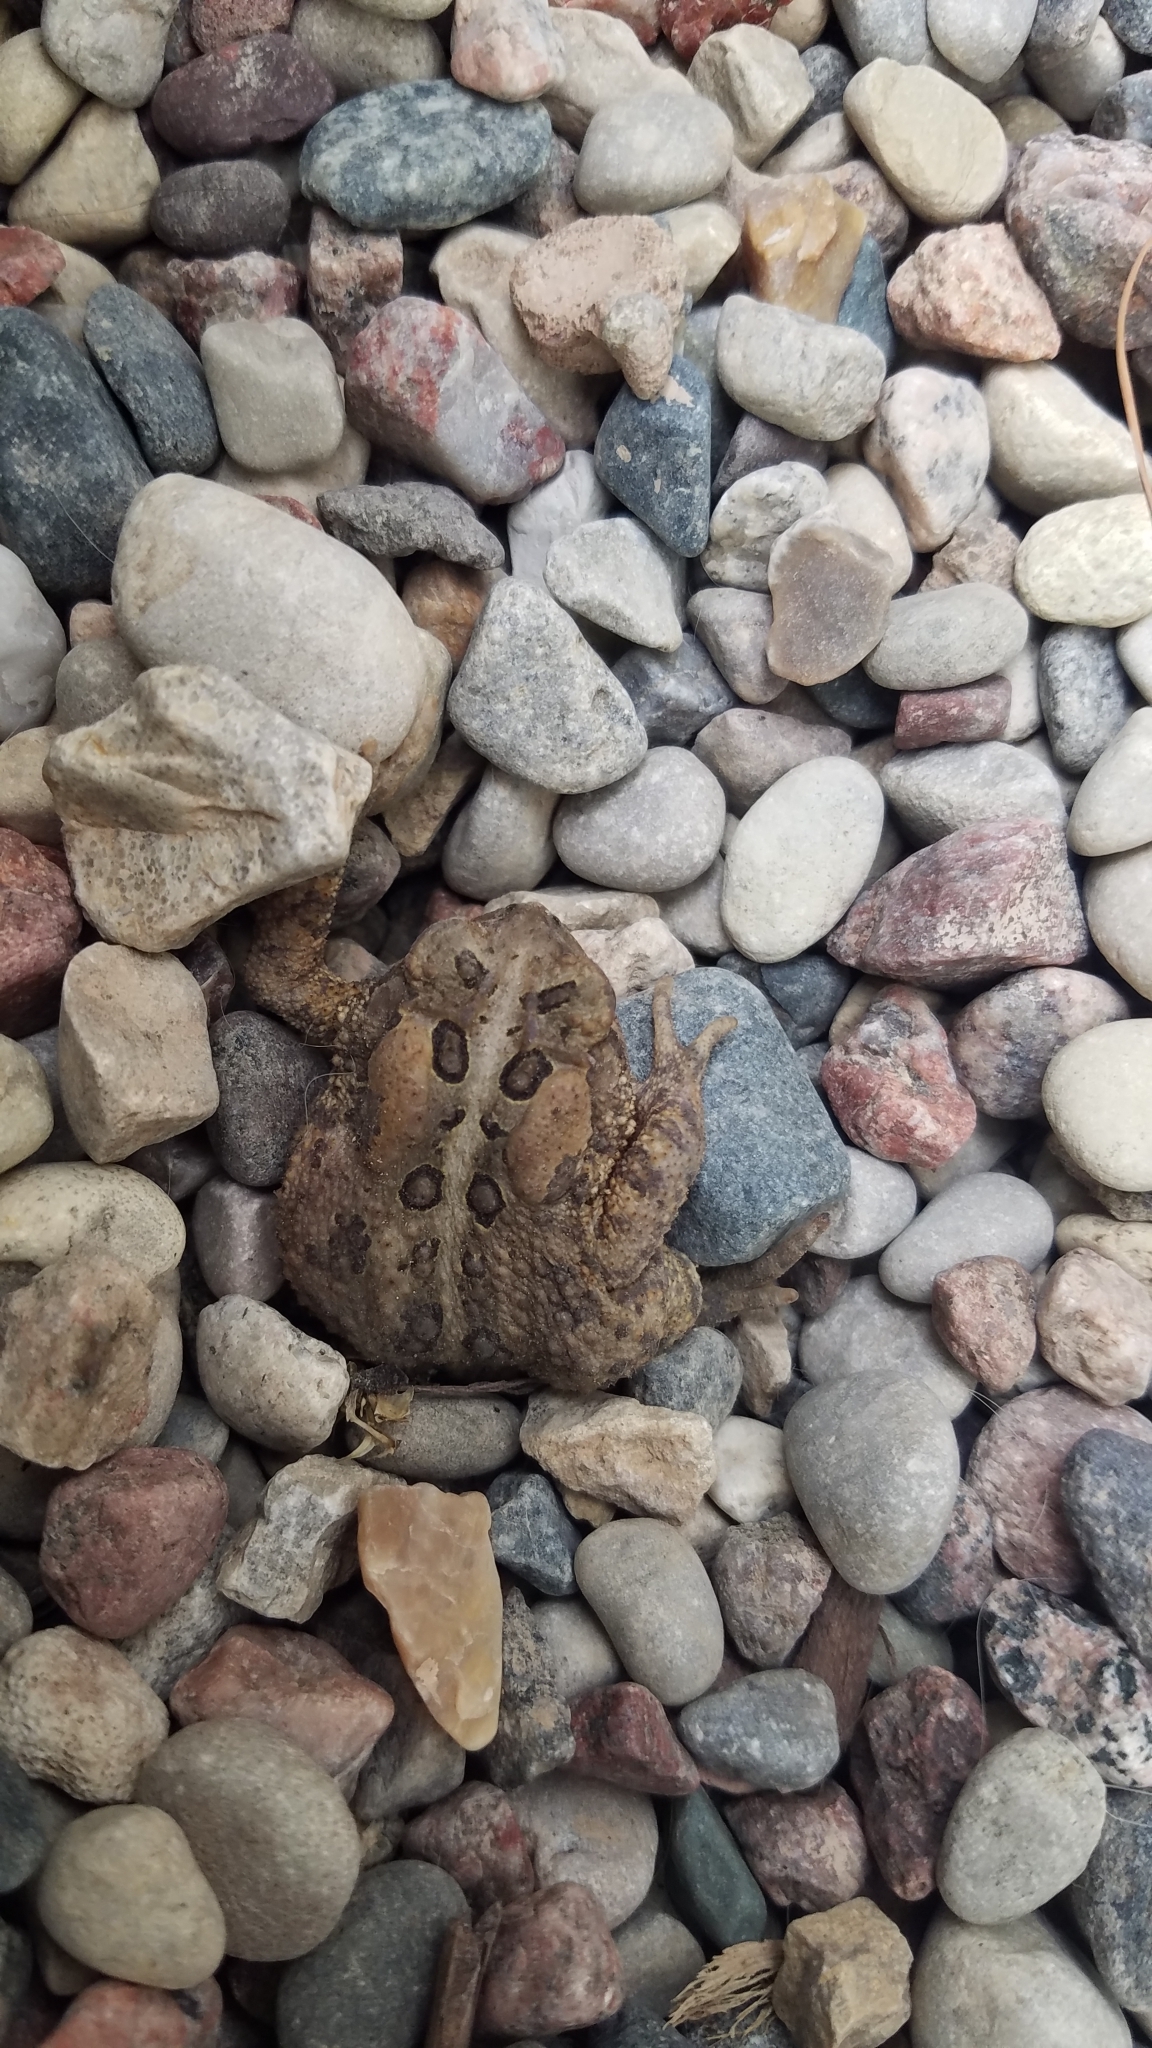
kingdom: Animalia
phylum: Chordata
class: Amphibia
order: Anura
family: Bufonidae
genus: Anaxyrus
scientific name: Anaxyrus americanus
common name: American toad
